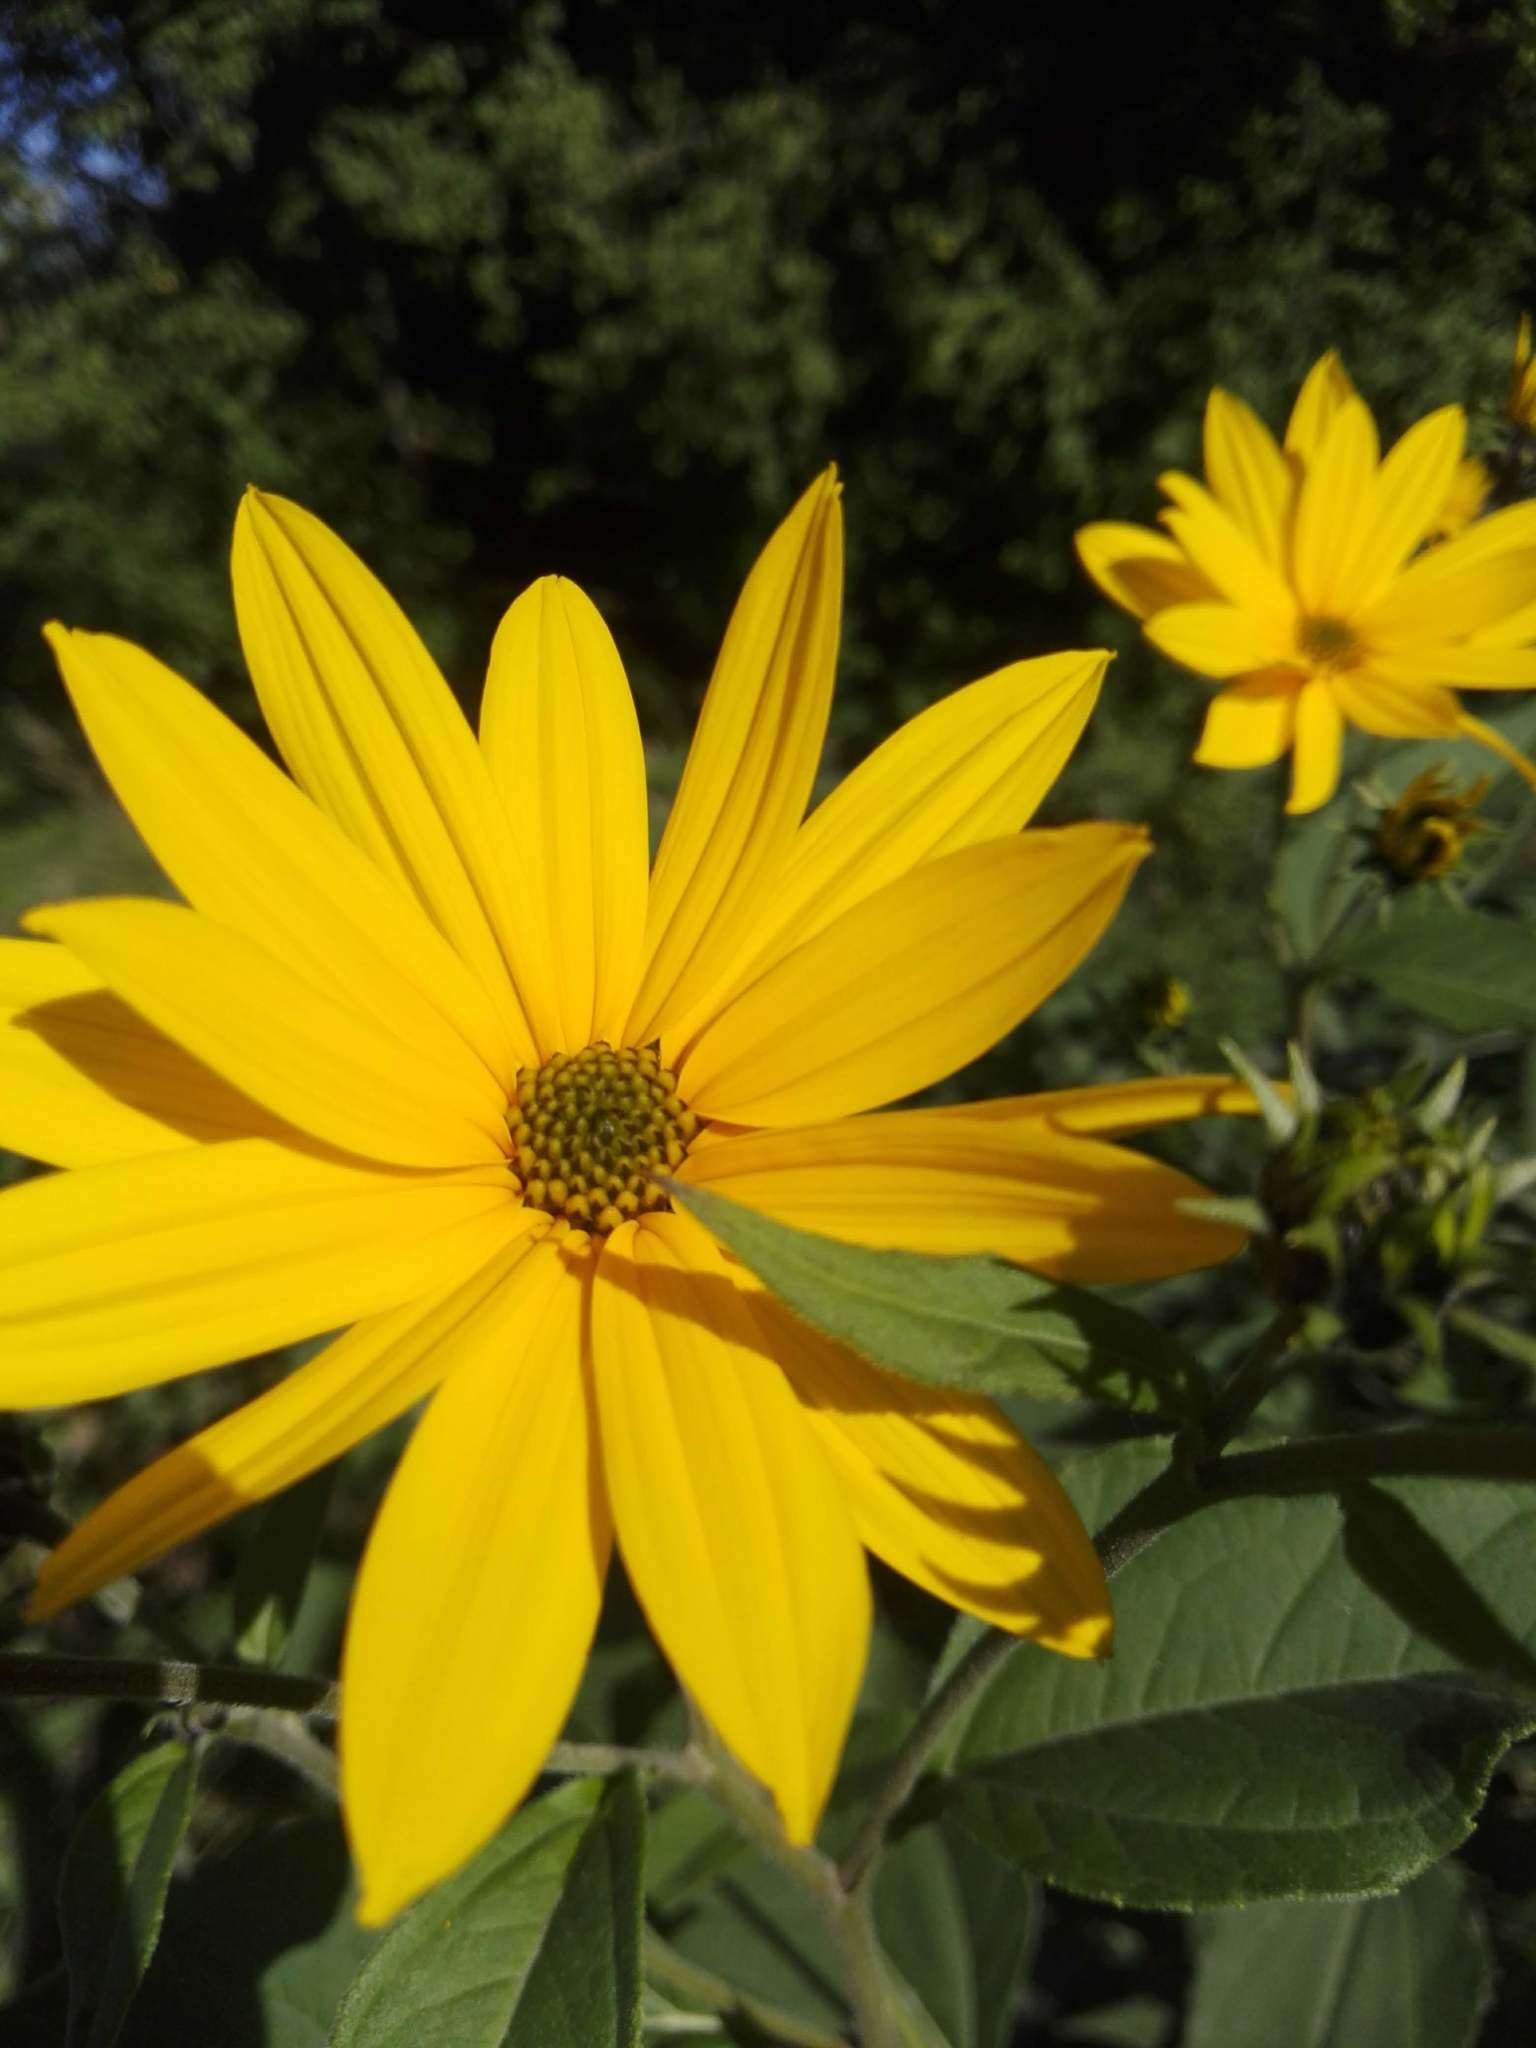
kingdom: Plantae
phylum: Tracheophyta
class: Magnoliopsida
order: Asterales
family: Asteraceae
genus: Helianthus
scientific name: Helianthus tuberosus
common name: Jerusalem artichoke
